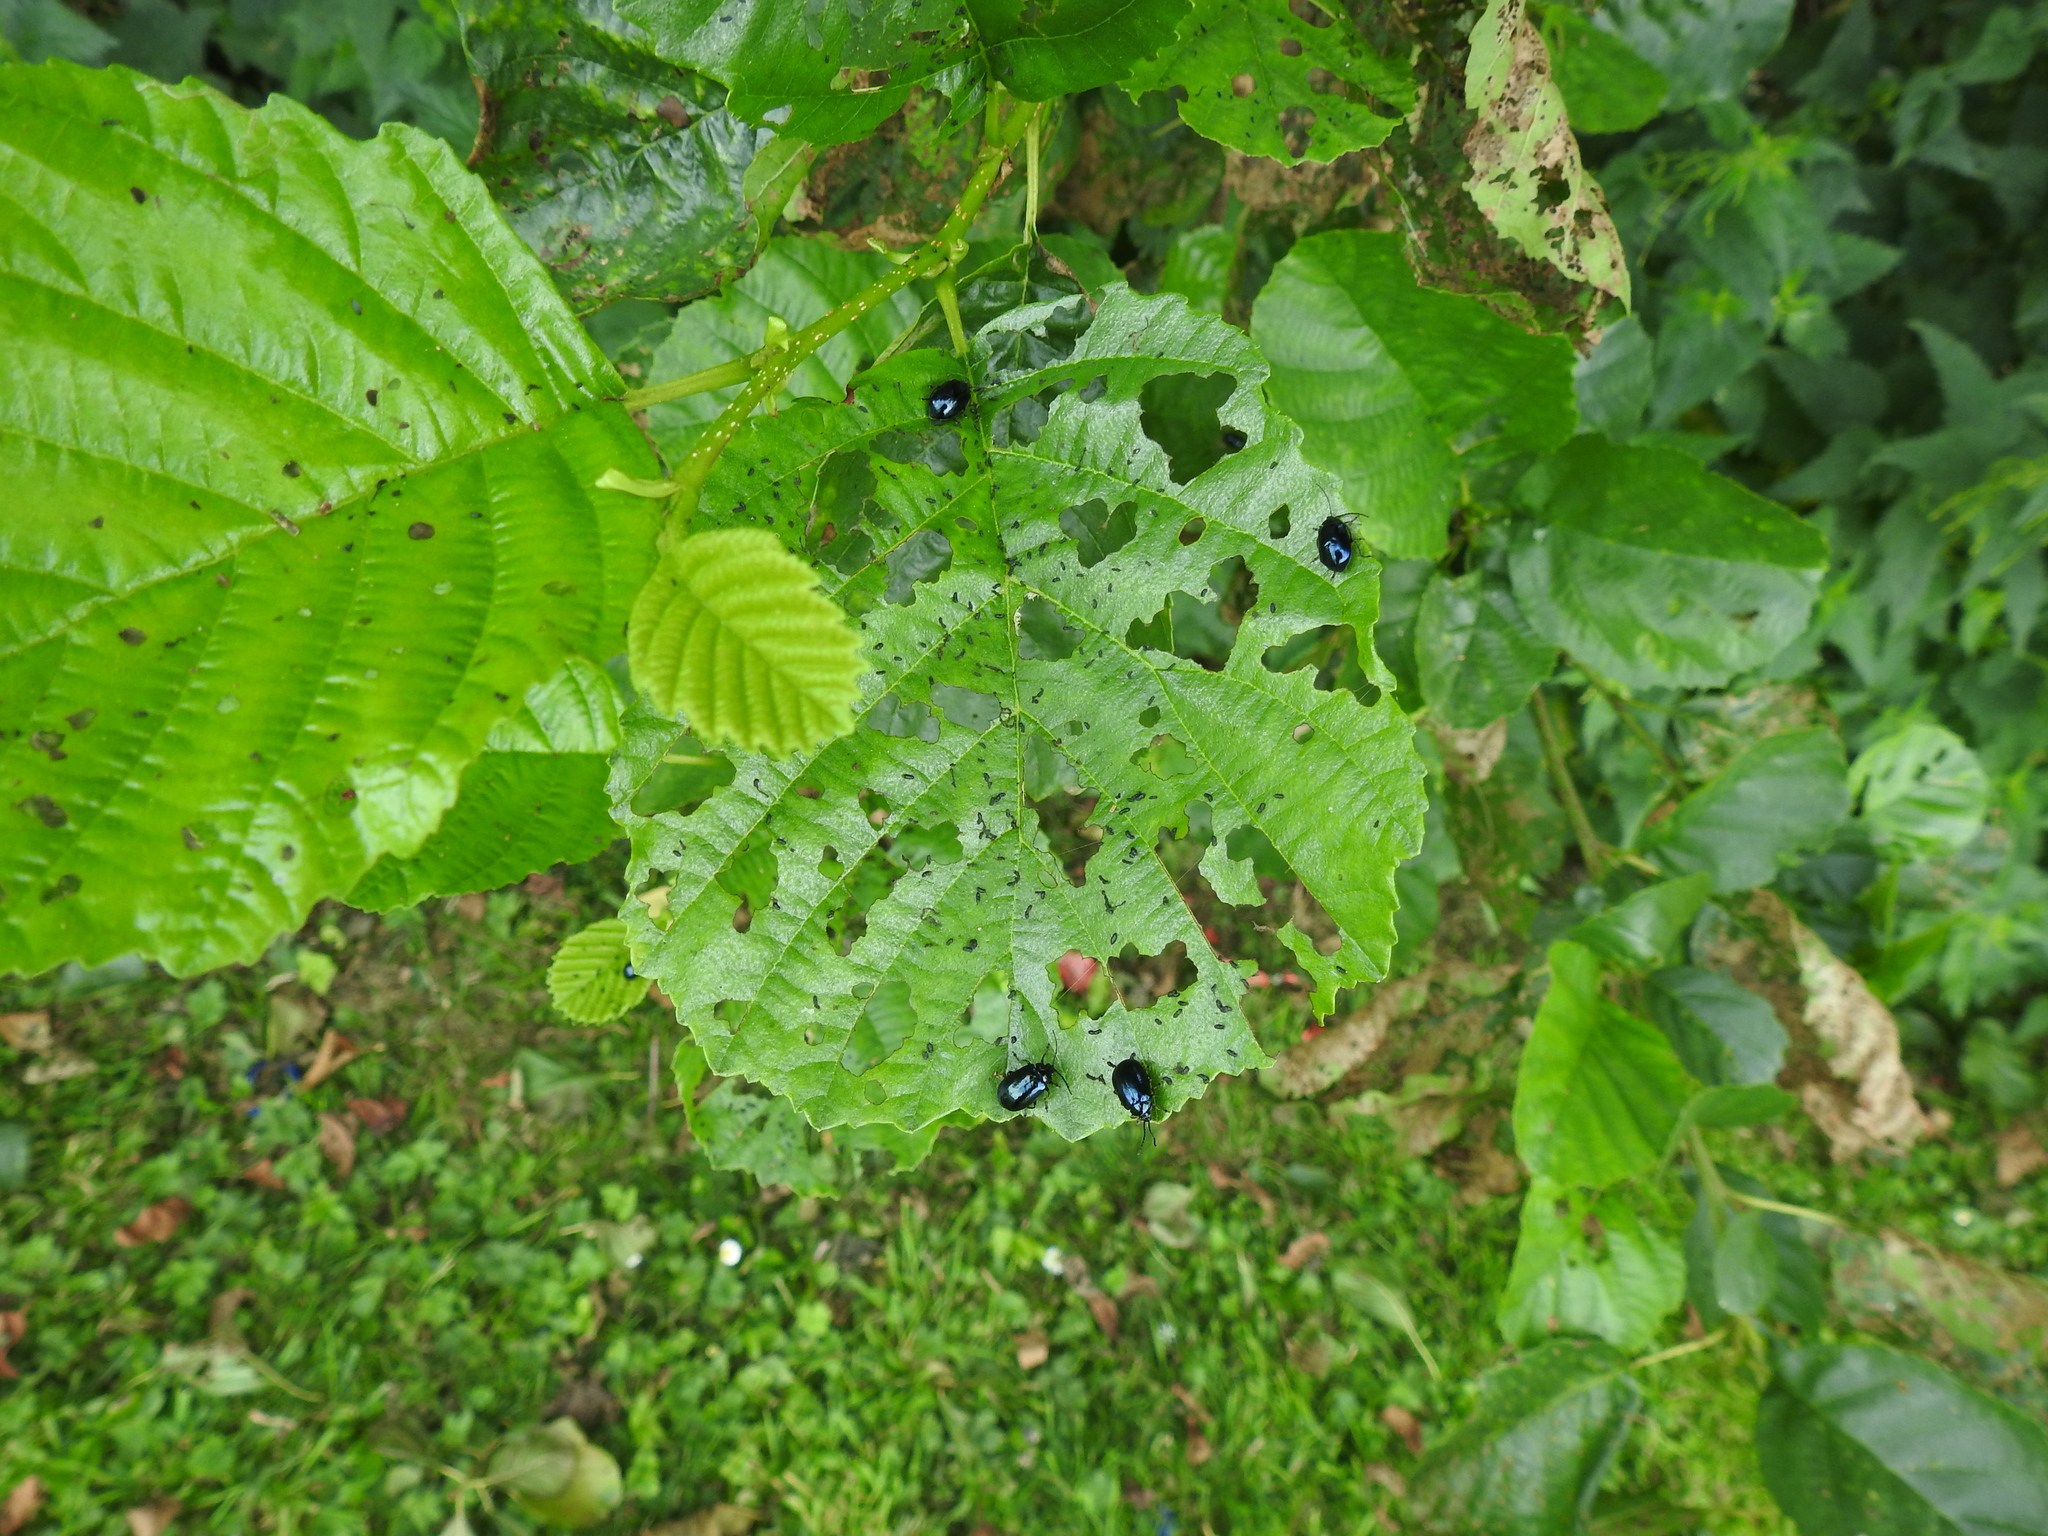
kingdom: Animalia
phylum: Arthropoda
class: Insecta
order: Coleoptera
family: Chrysomelidae
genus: Agelastica
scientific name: Agelastica alni
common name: Alder leaf beetle
